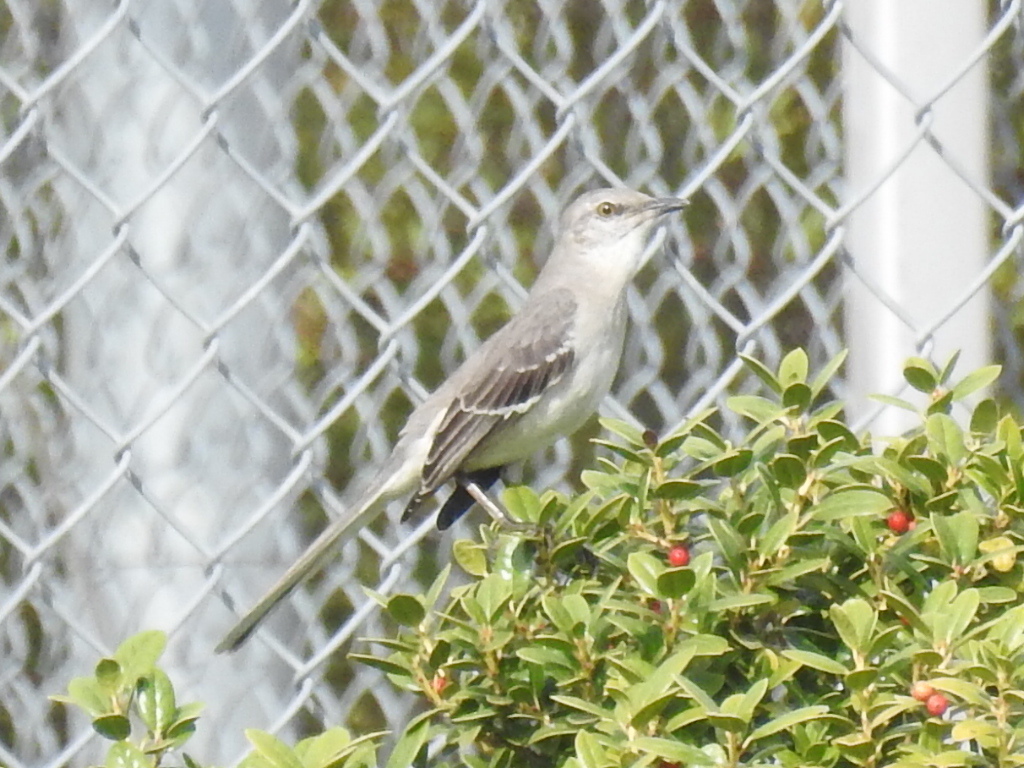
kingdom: Animalia
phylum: Chordata
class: Aves
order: Passeriformes
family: Mimidae
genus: Mimus
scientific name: Mimus polyglottos
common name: Northern mockingbird
